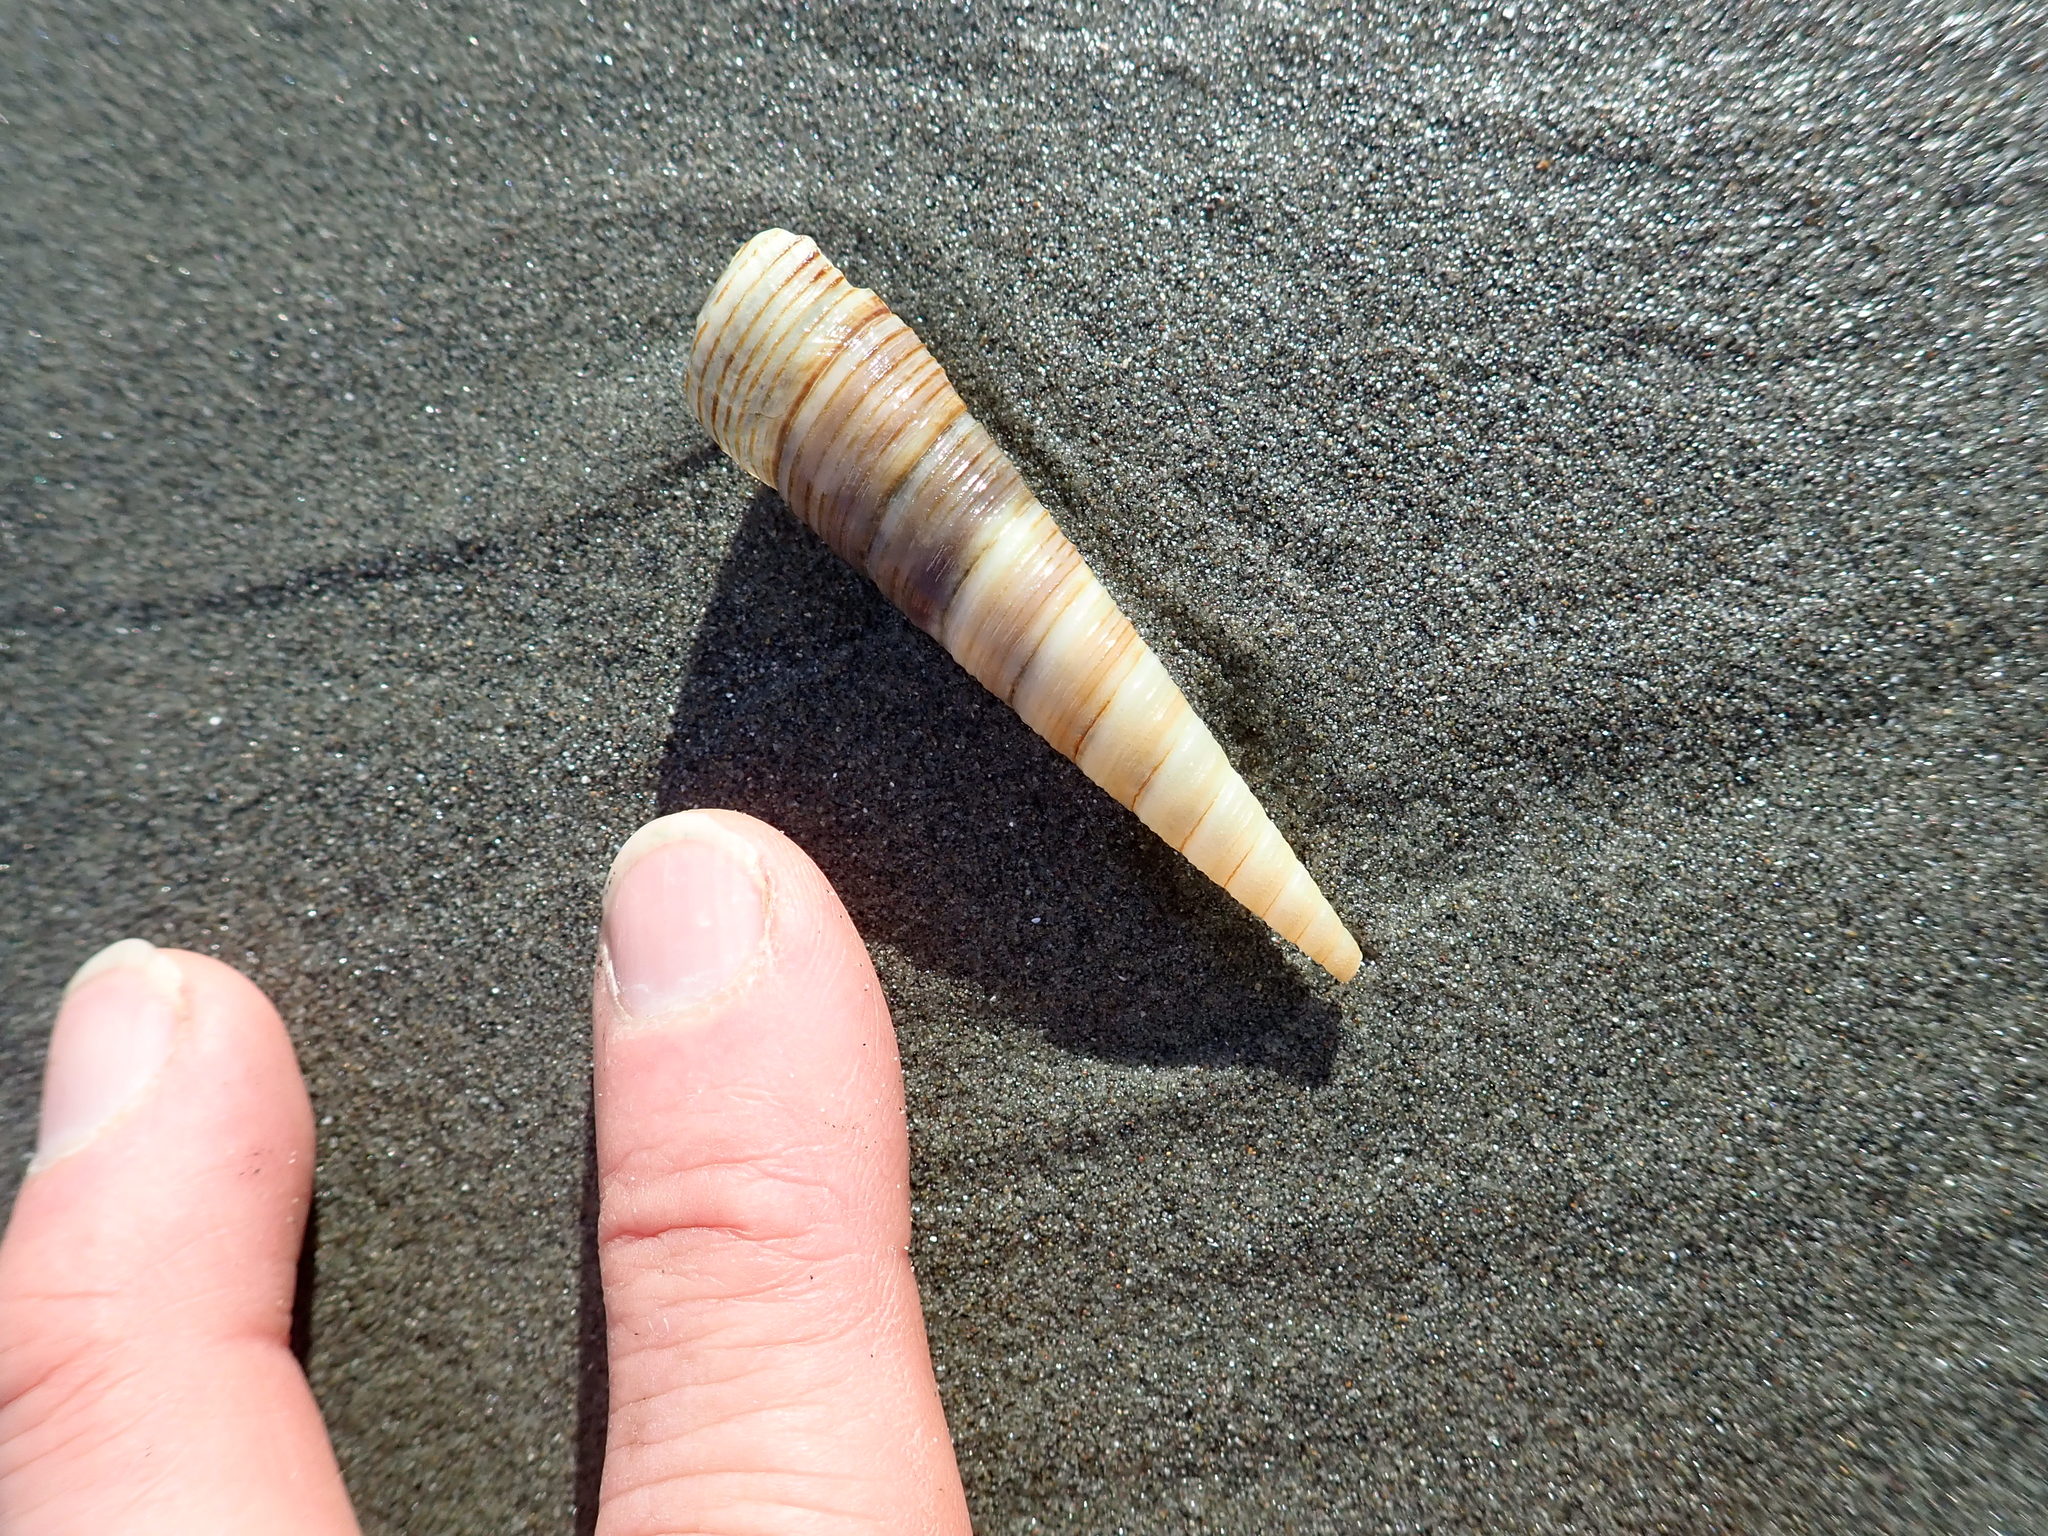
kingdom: Animalia
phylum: Mollusca
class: Gastropoda
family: Turritellidae
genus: Zeacolpus
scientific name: Zeacolpus vittatus
